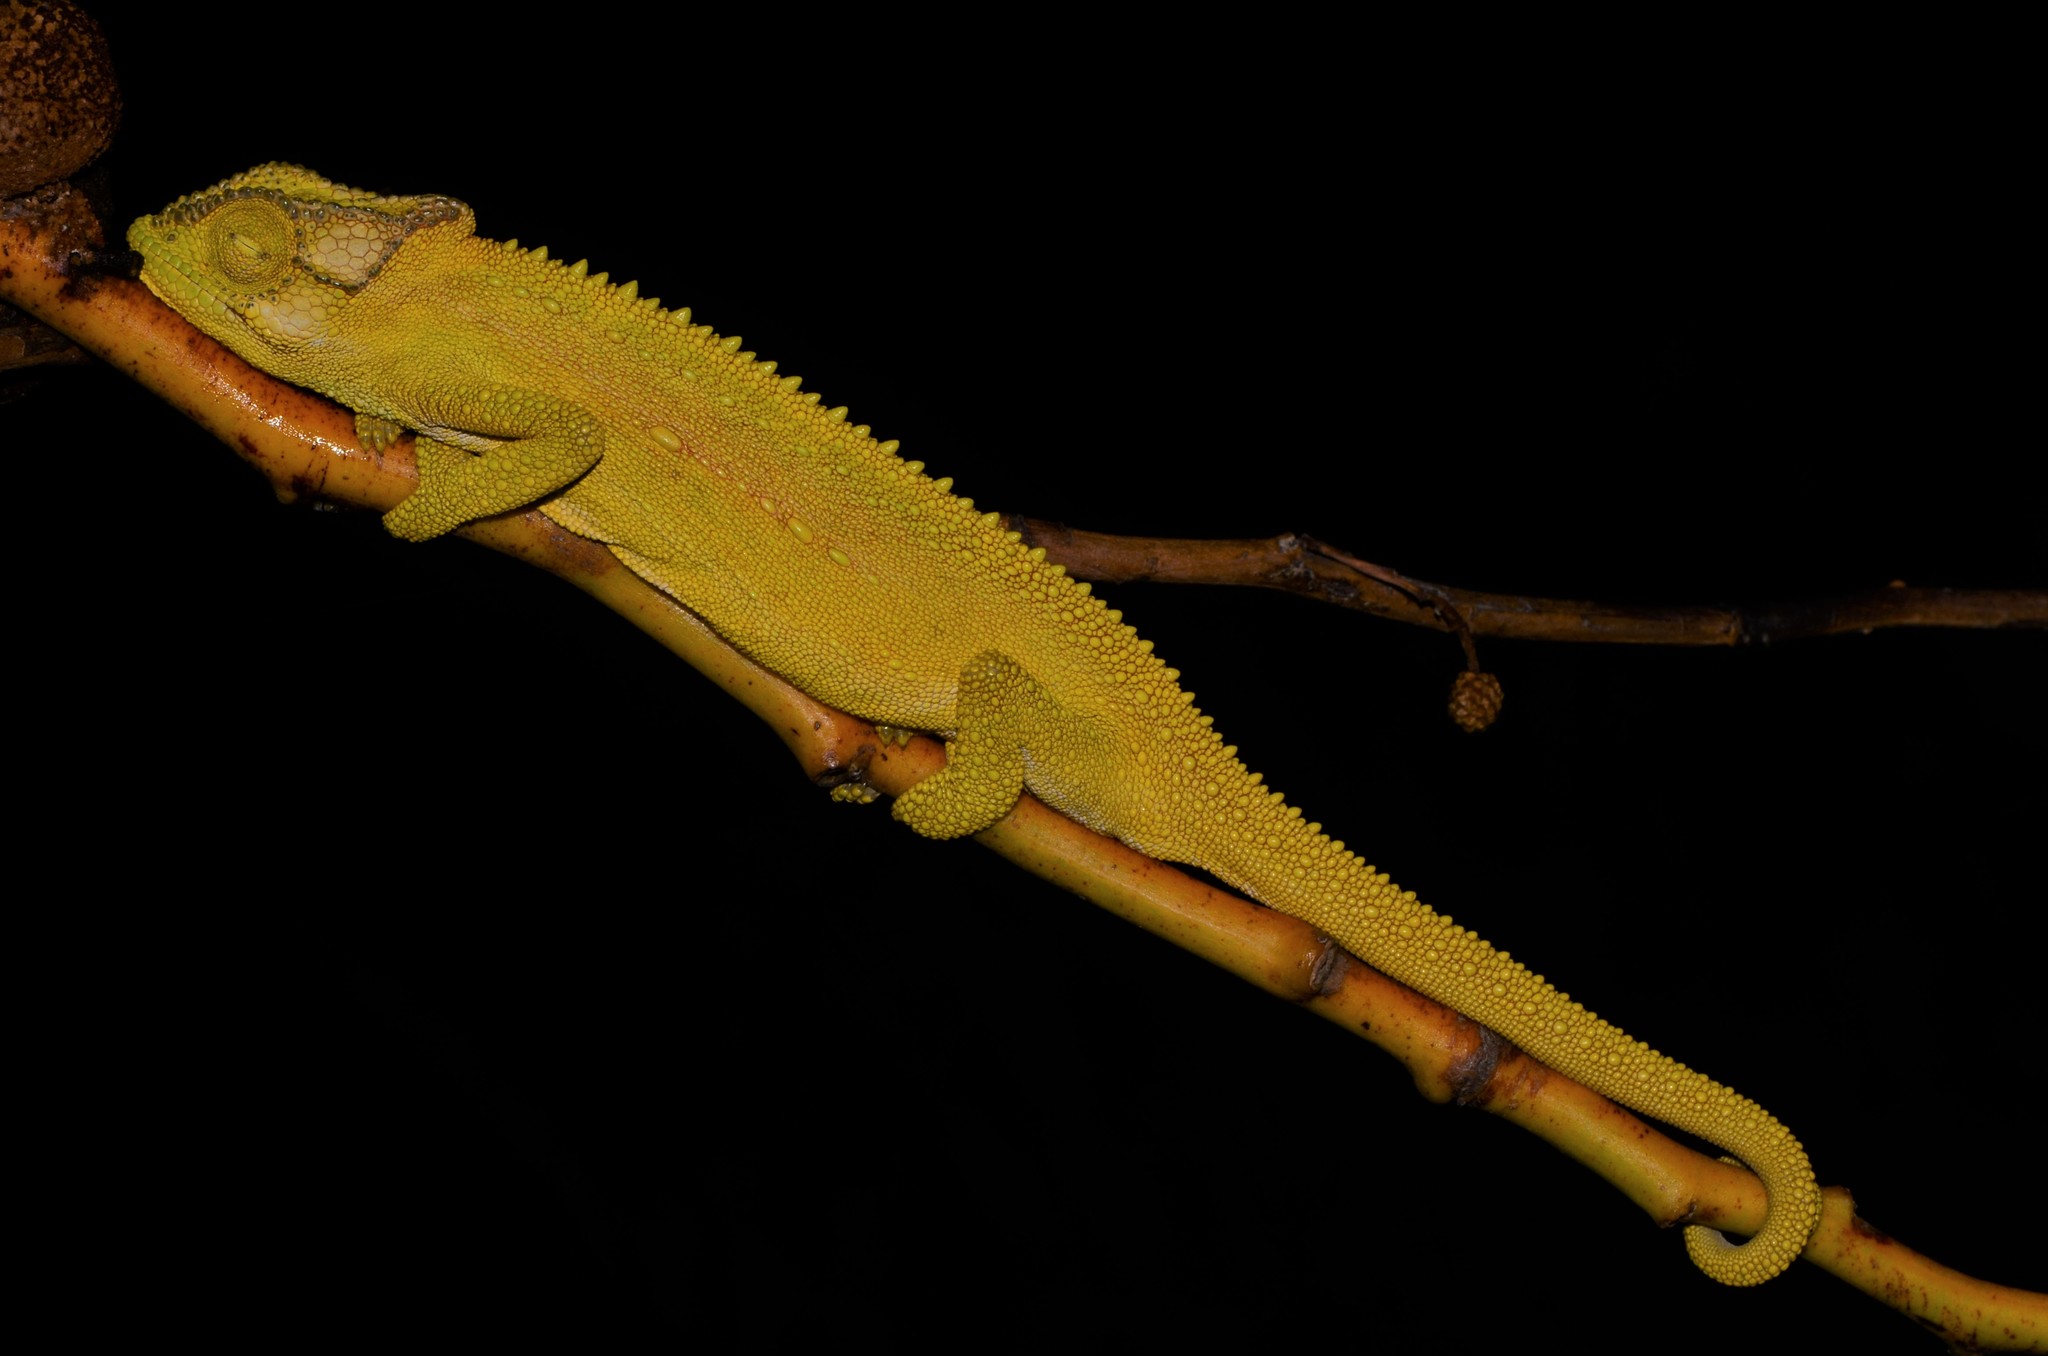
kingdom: Animalia
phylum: Chordata
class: Squamata
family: Chamaeleonidae
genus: Bradypodion
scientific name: Bradypodion pumilum
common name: Cape dwarf chameleon
